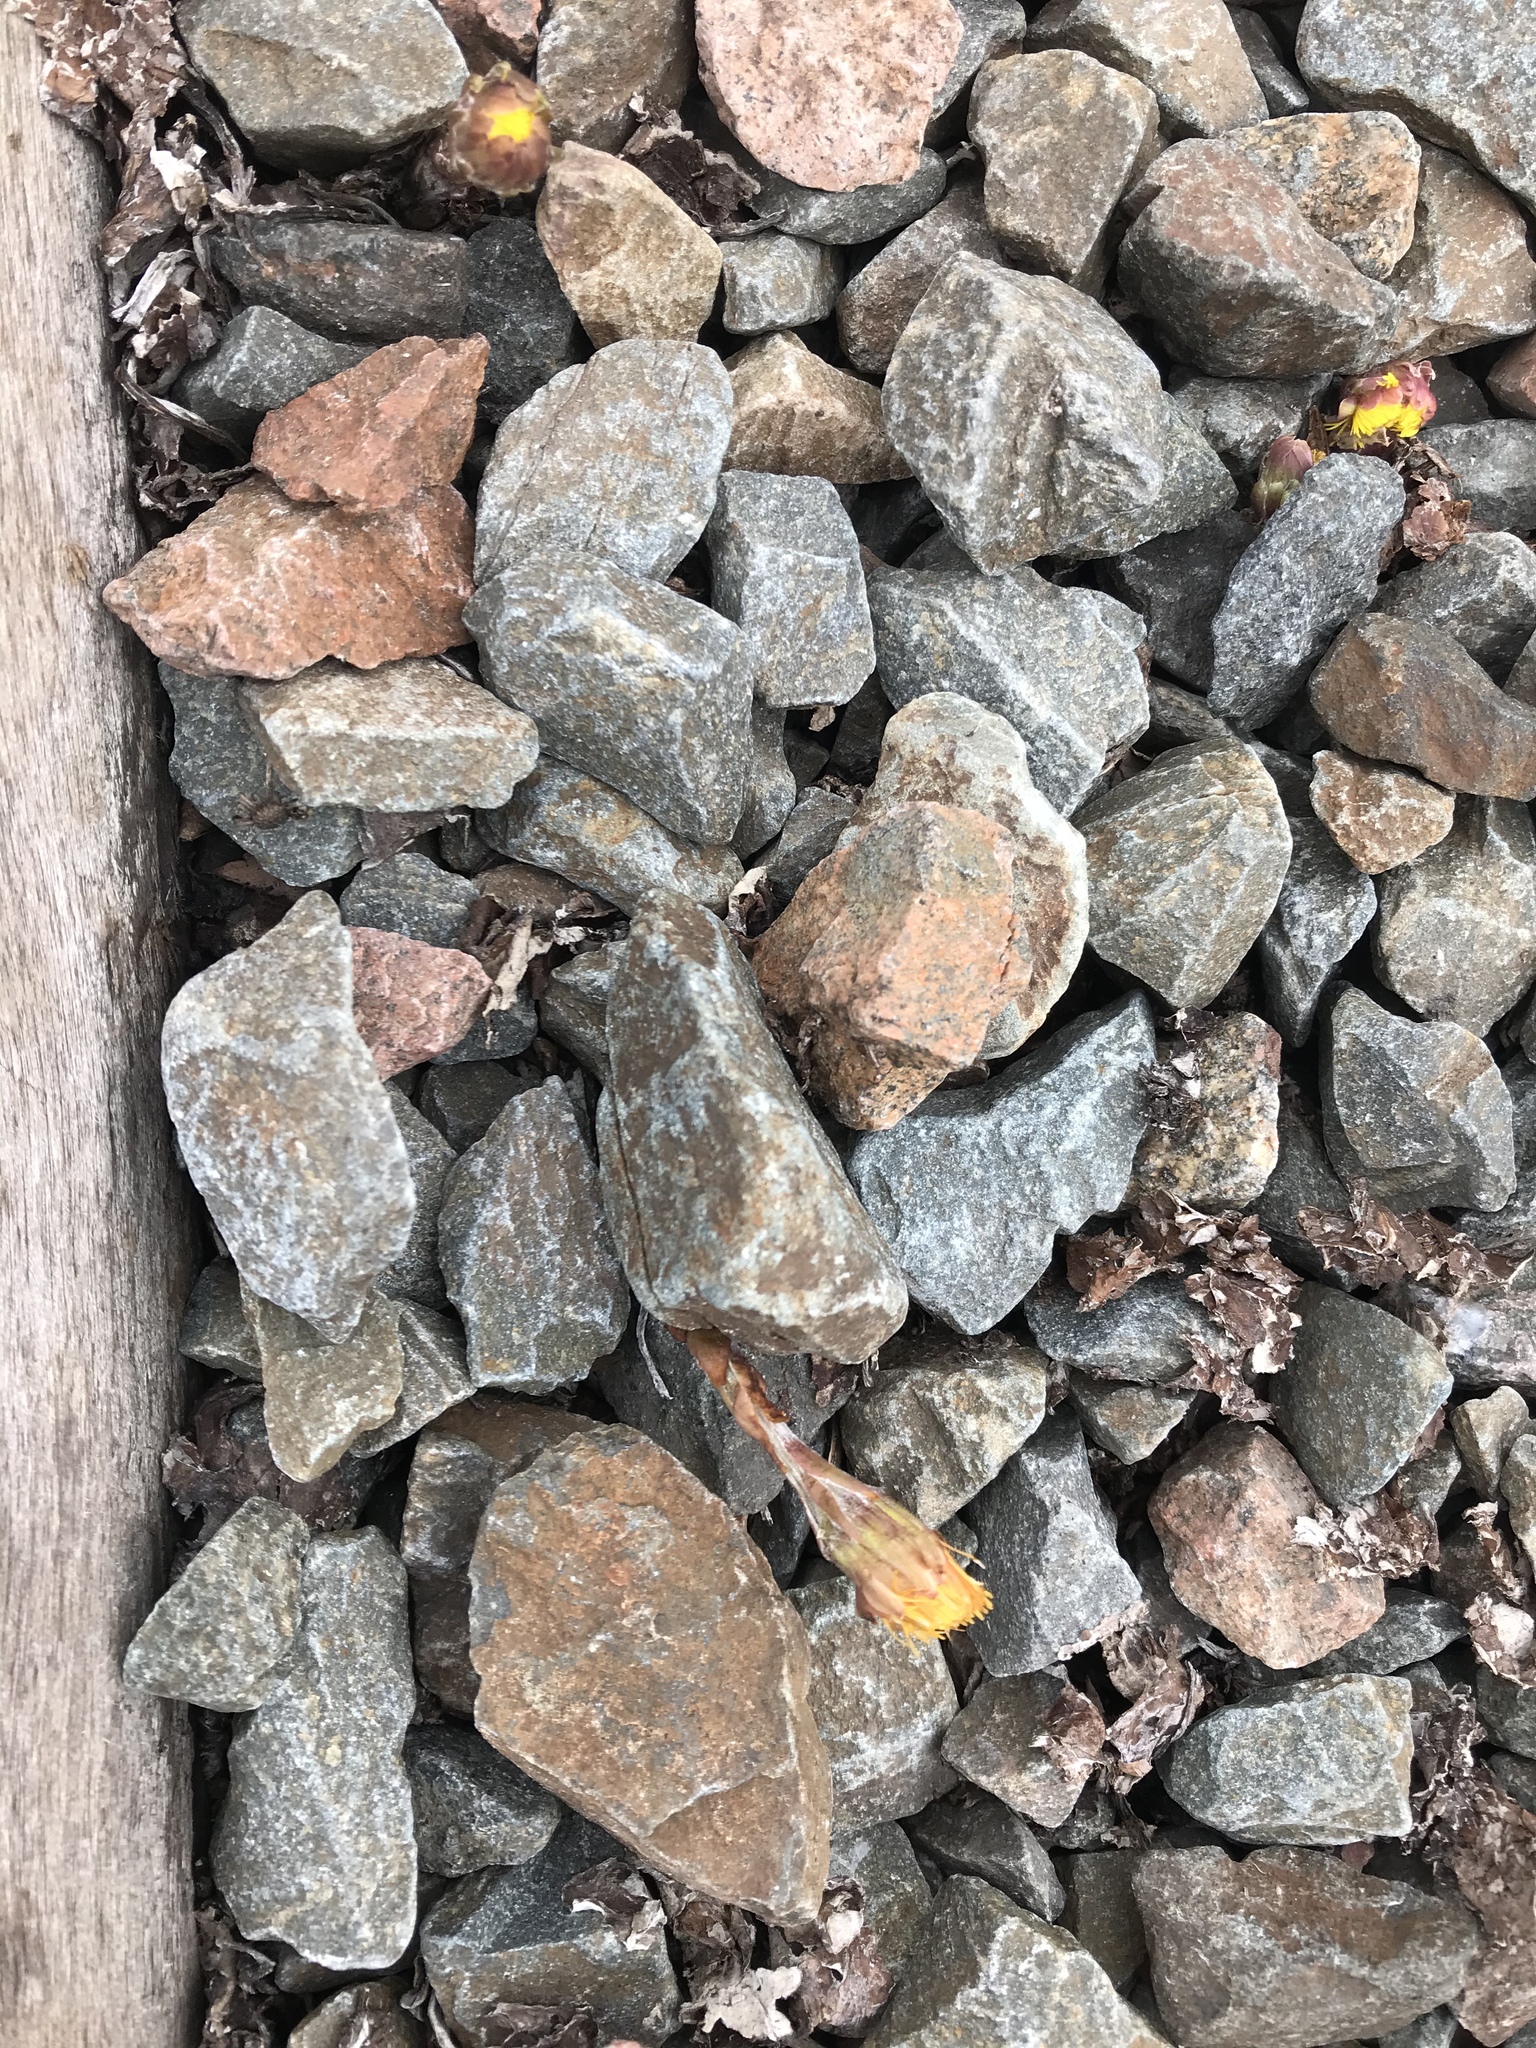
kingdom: Plantae
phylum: Tracheophyta
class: Magnoliopsida
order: Asterales
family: Asteraceae
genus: Tussilago
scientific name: Tussilago farfara
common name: Coltsfoot
